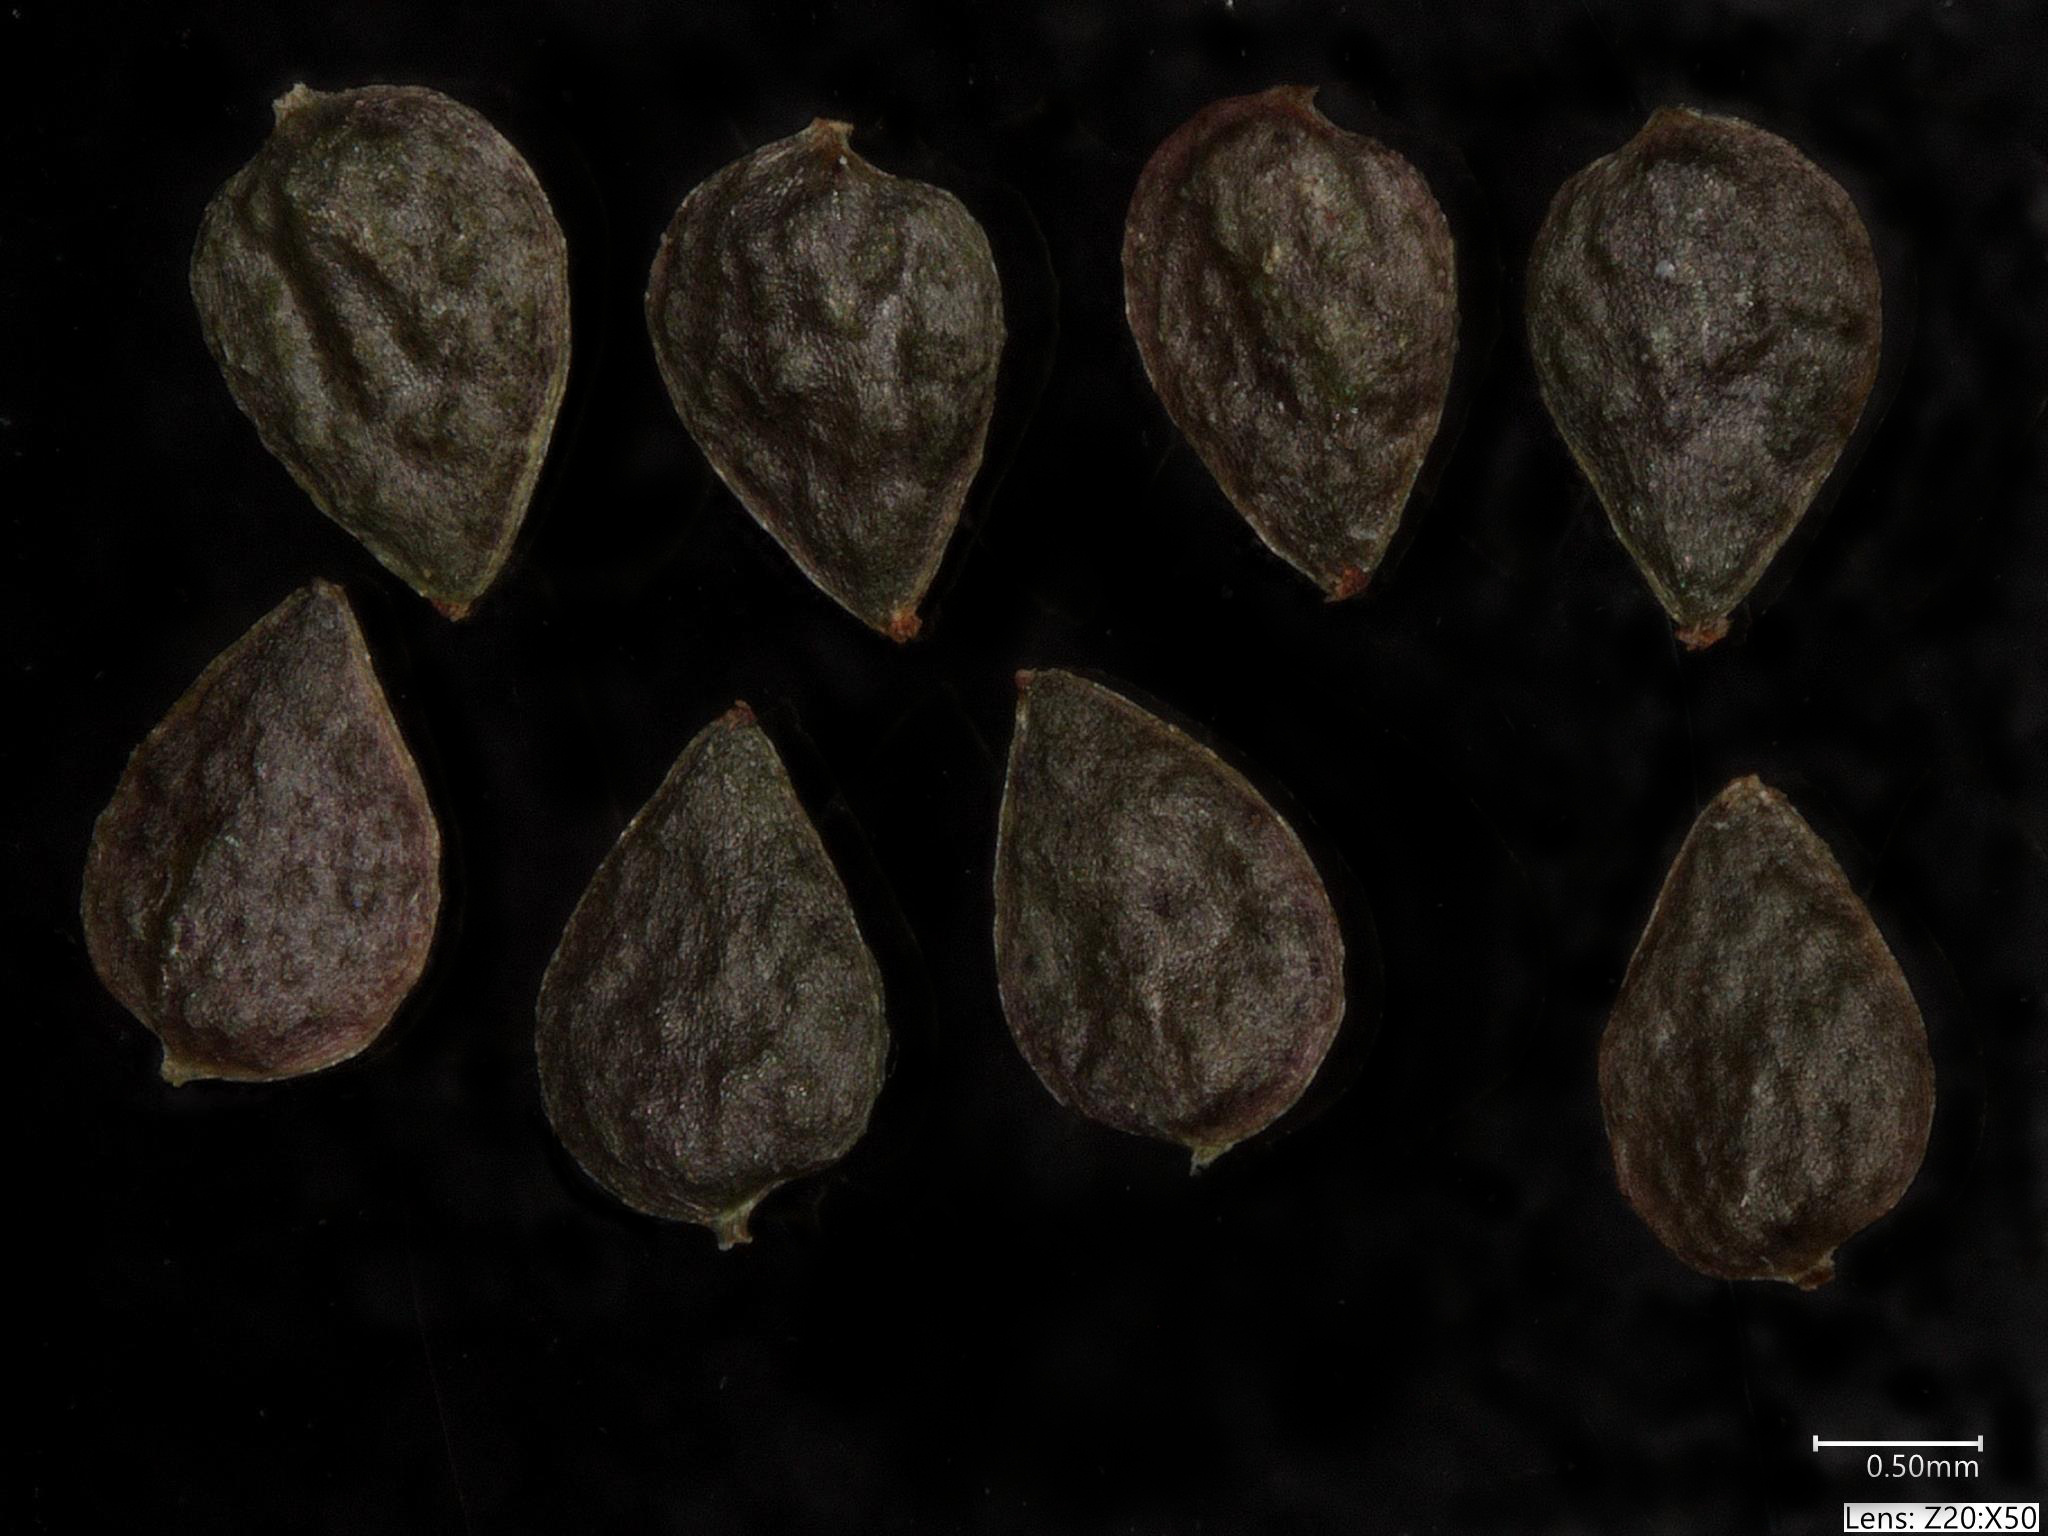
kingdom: Plantae
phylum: Tracheophyta
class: Magnoliopsida
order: Rosales
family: Urticaceae
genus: Pilea
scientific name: Pilea fontana
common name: Clearweed
